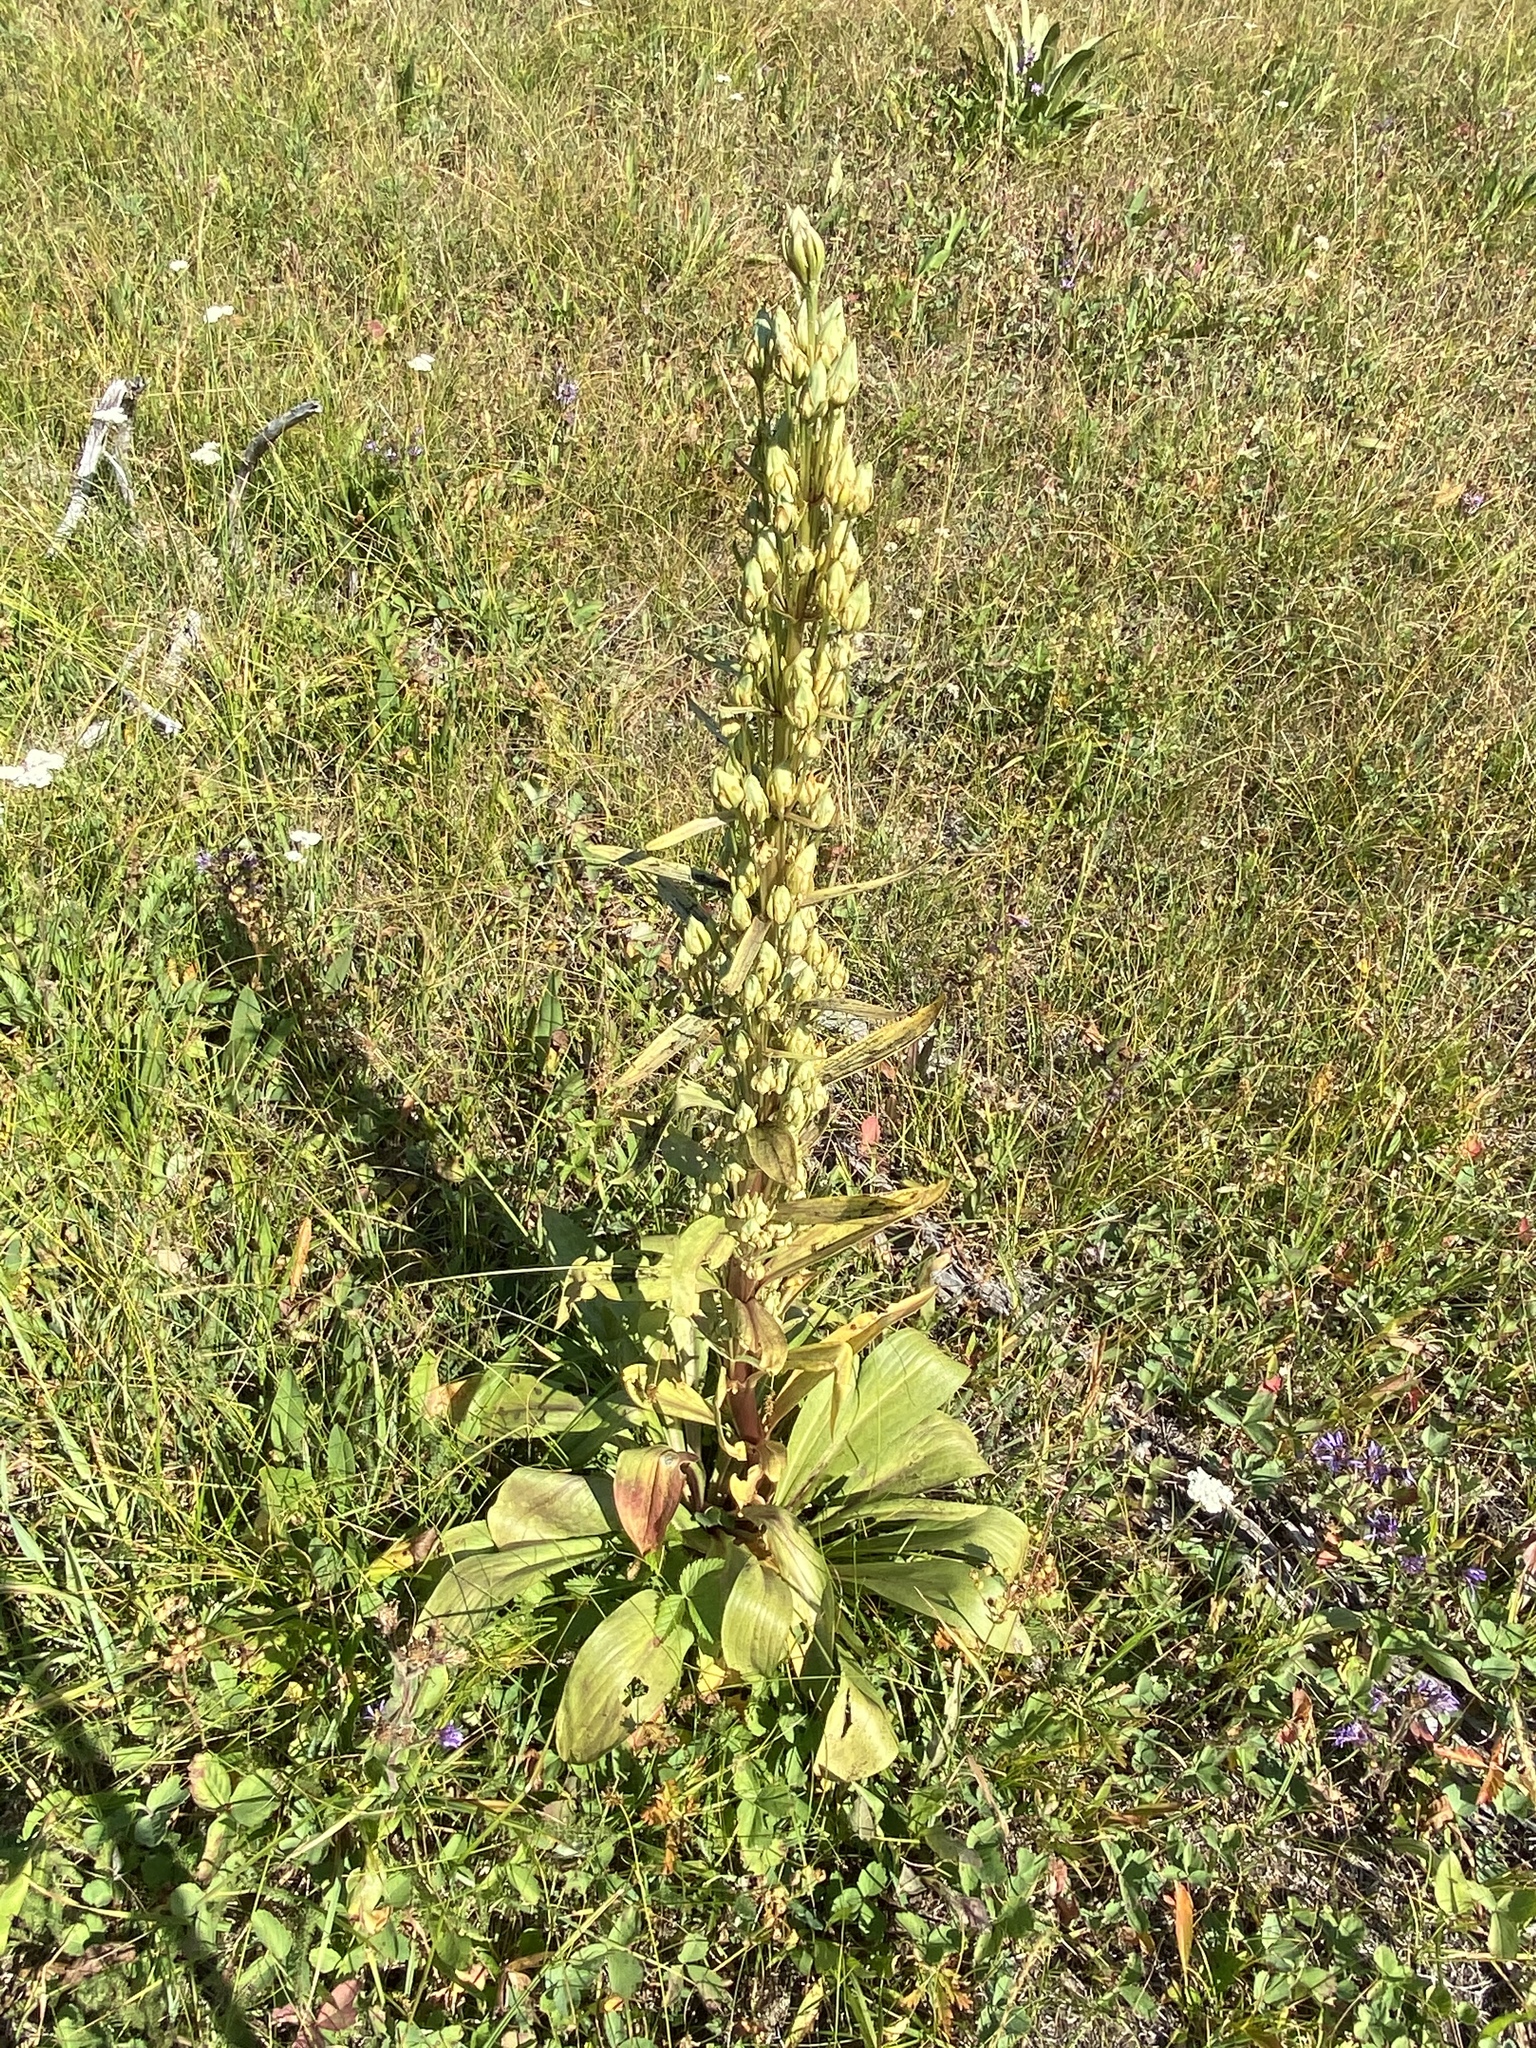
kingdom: Plantae
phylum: Tracheophyta
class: Magnoliopsida
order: Gentianales
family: Gentianaceae
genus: Frasera
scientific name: Frasera speciosa
